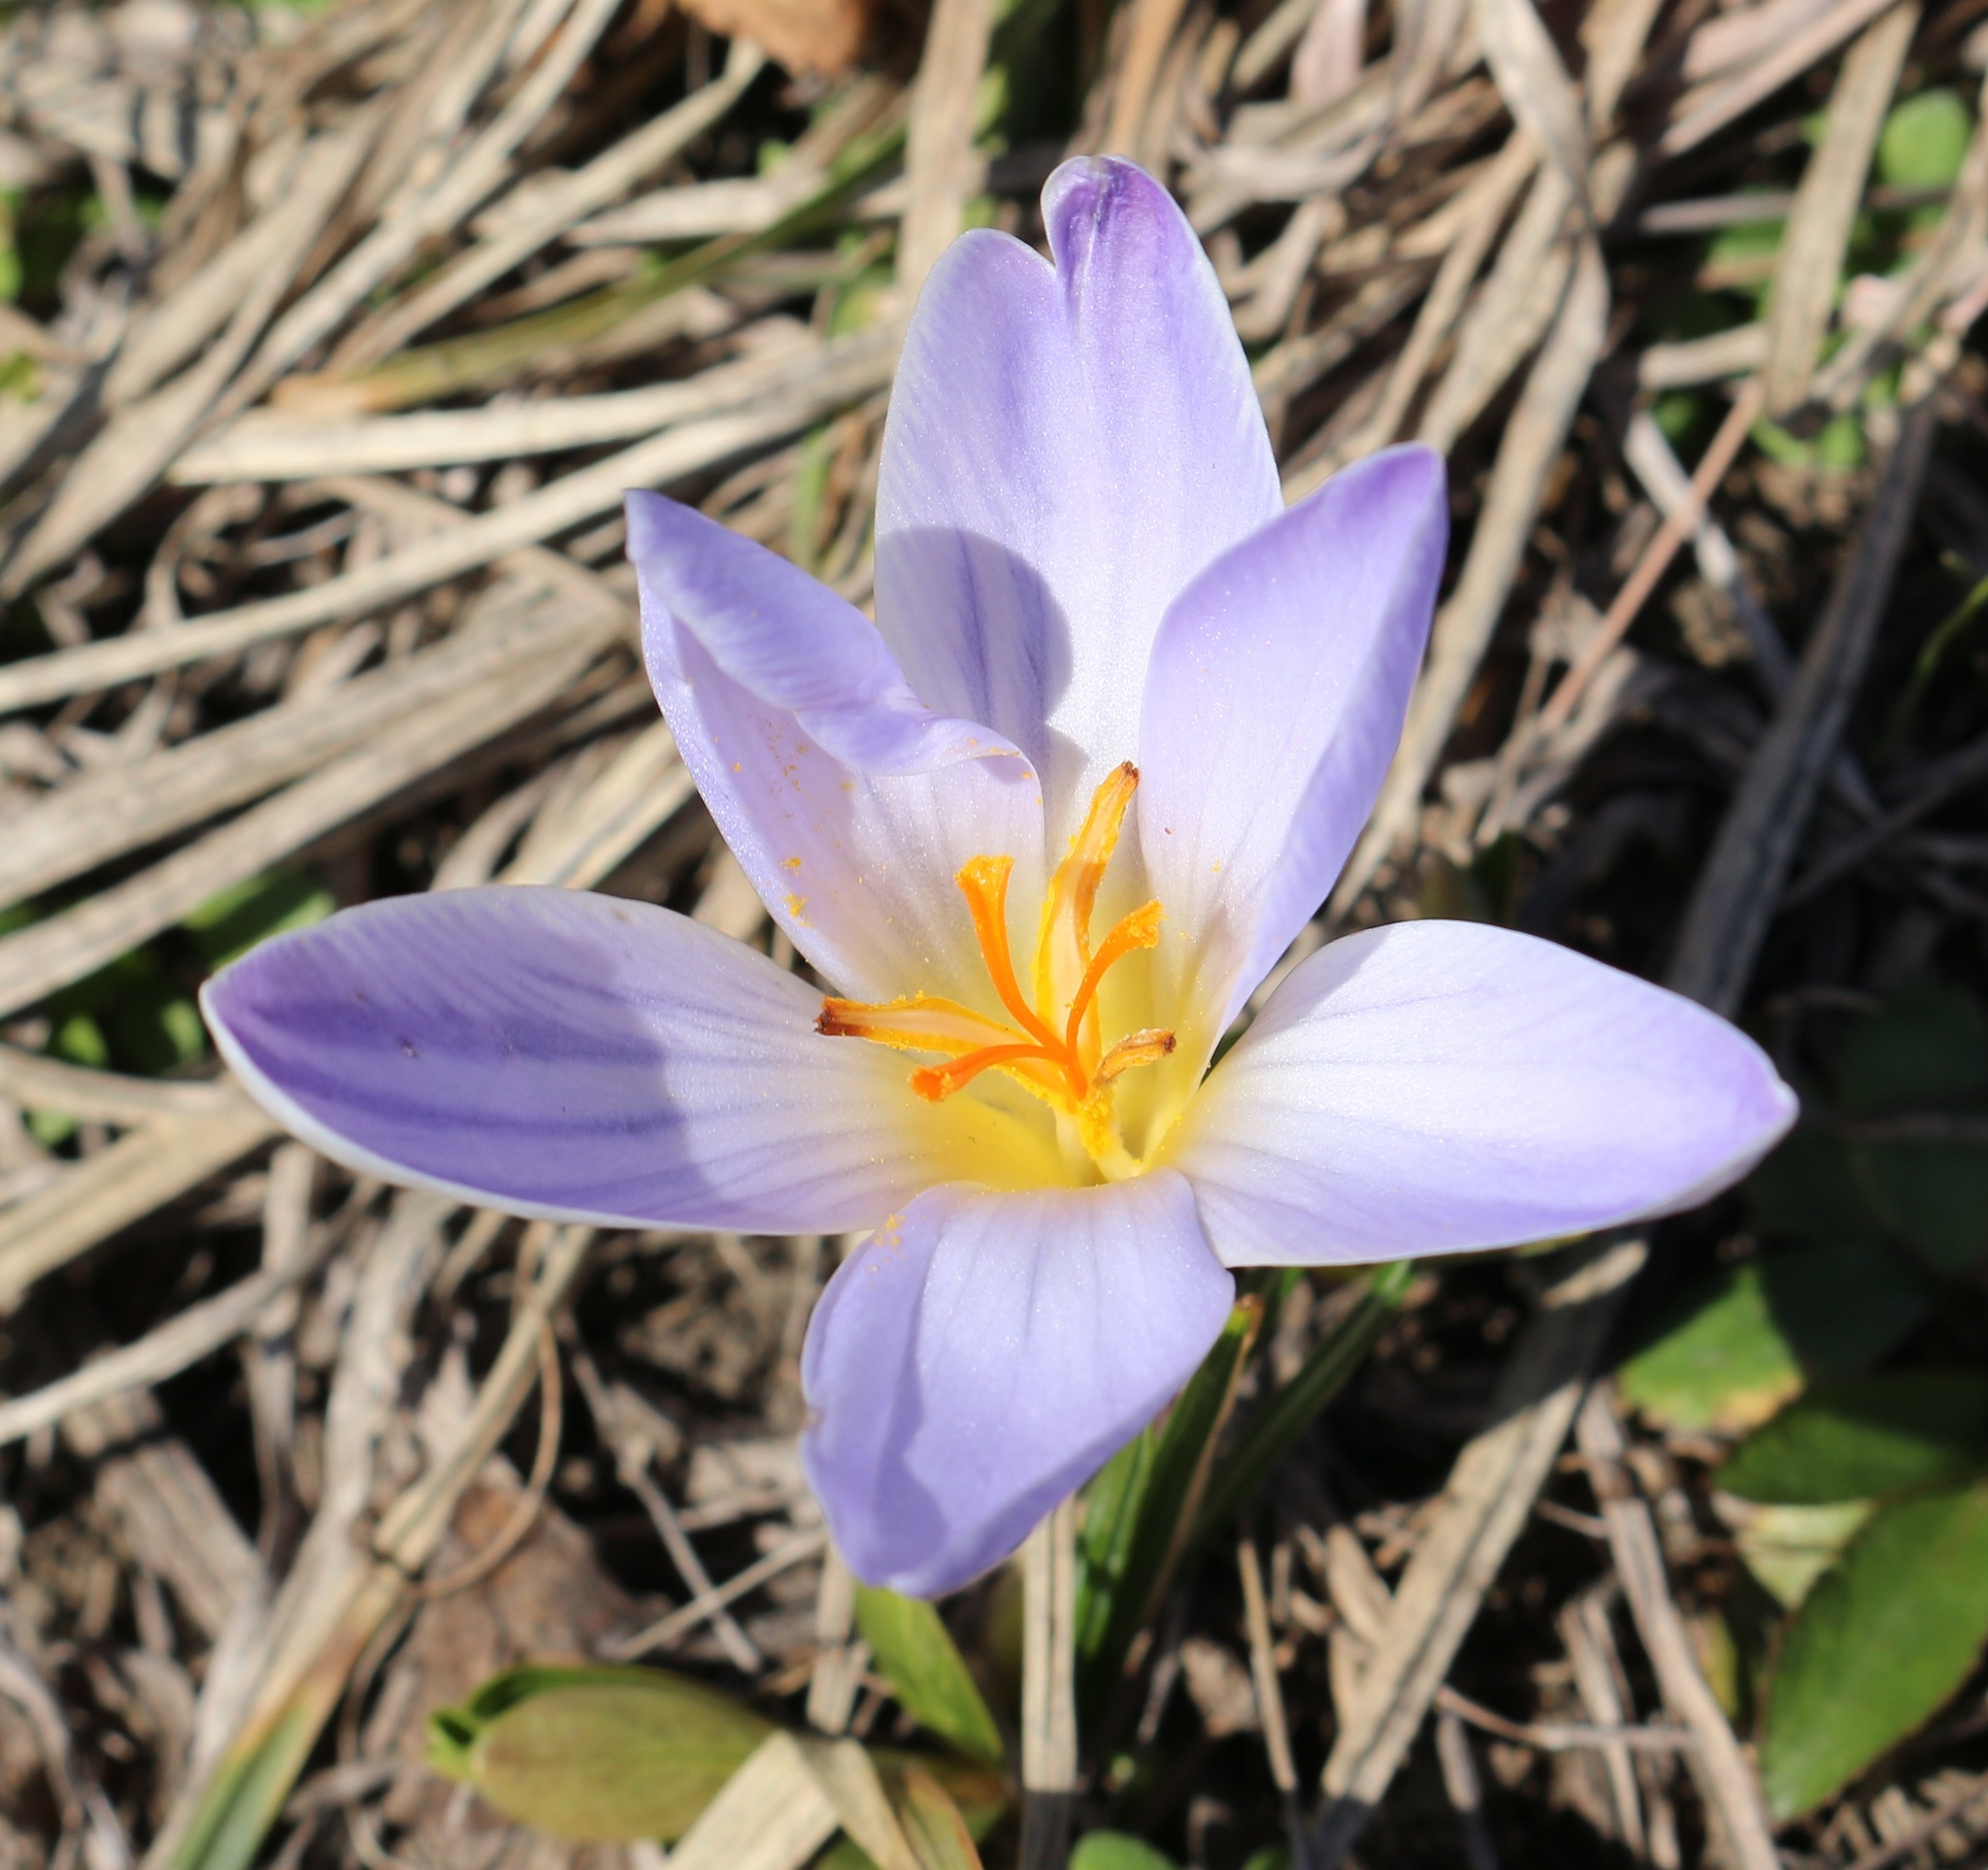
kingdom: Plantae
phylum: Tracheophyta
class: Liliopsida
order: Asparagales
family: Iridaceae
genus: Crocus
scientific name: Crocus reticulatus
